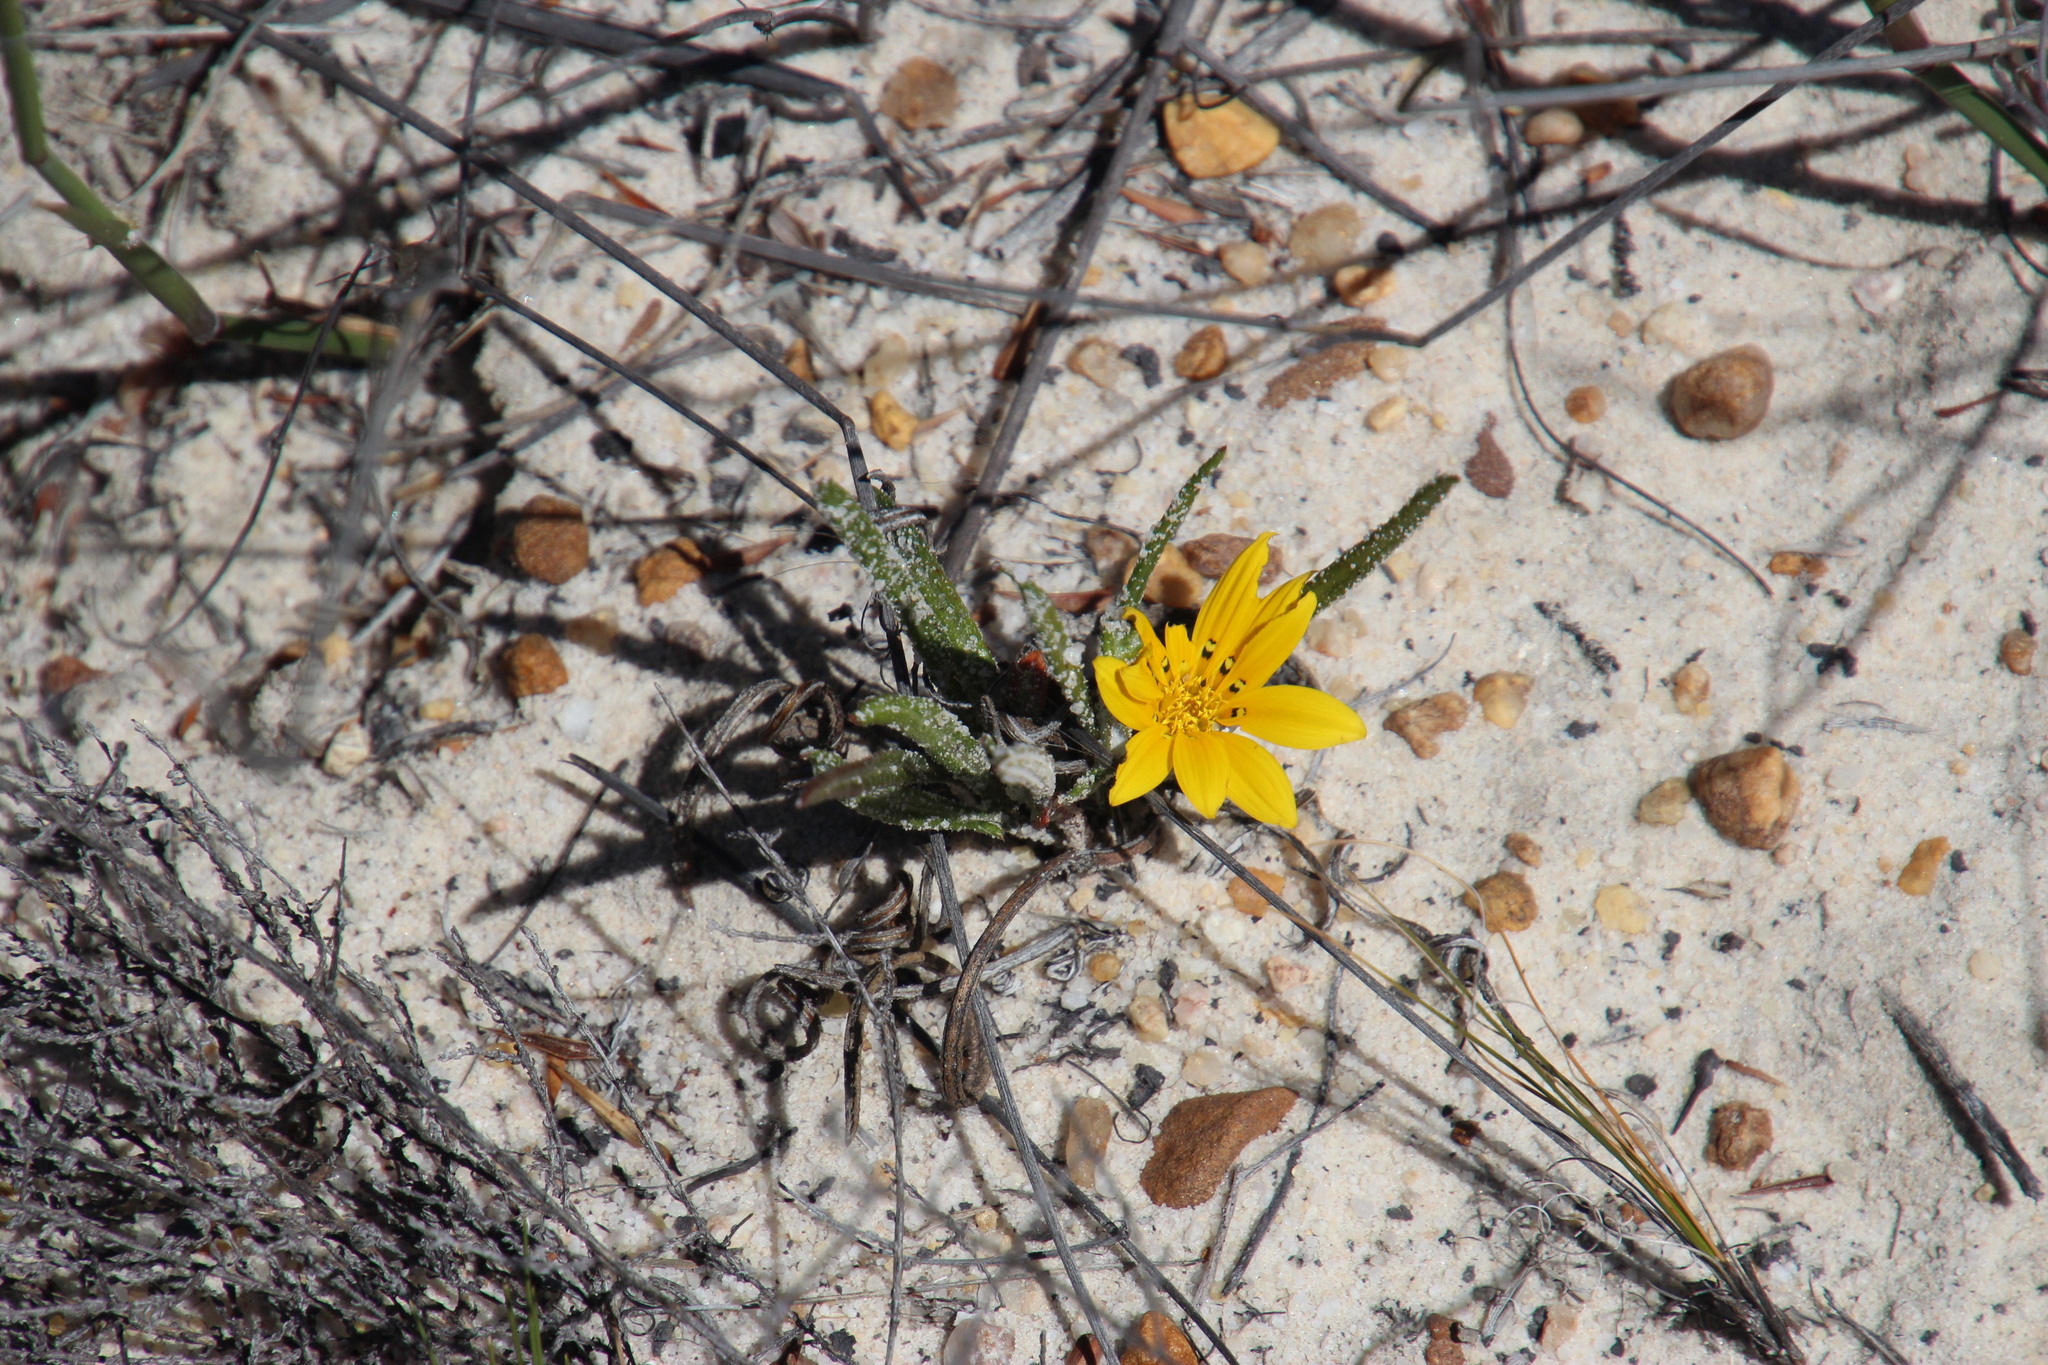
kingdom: Plantae
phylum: Tracheophyta
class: Magnoliopsida
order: Asterales
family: Asteraceae
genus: Gazania
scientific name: Gazania serrata
